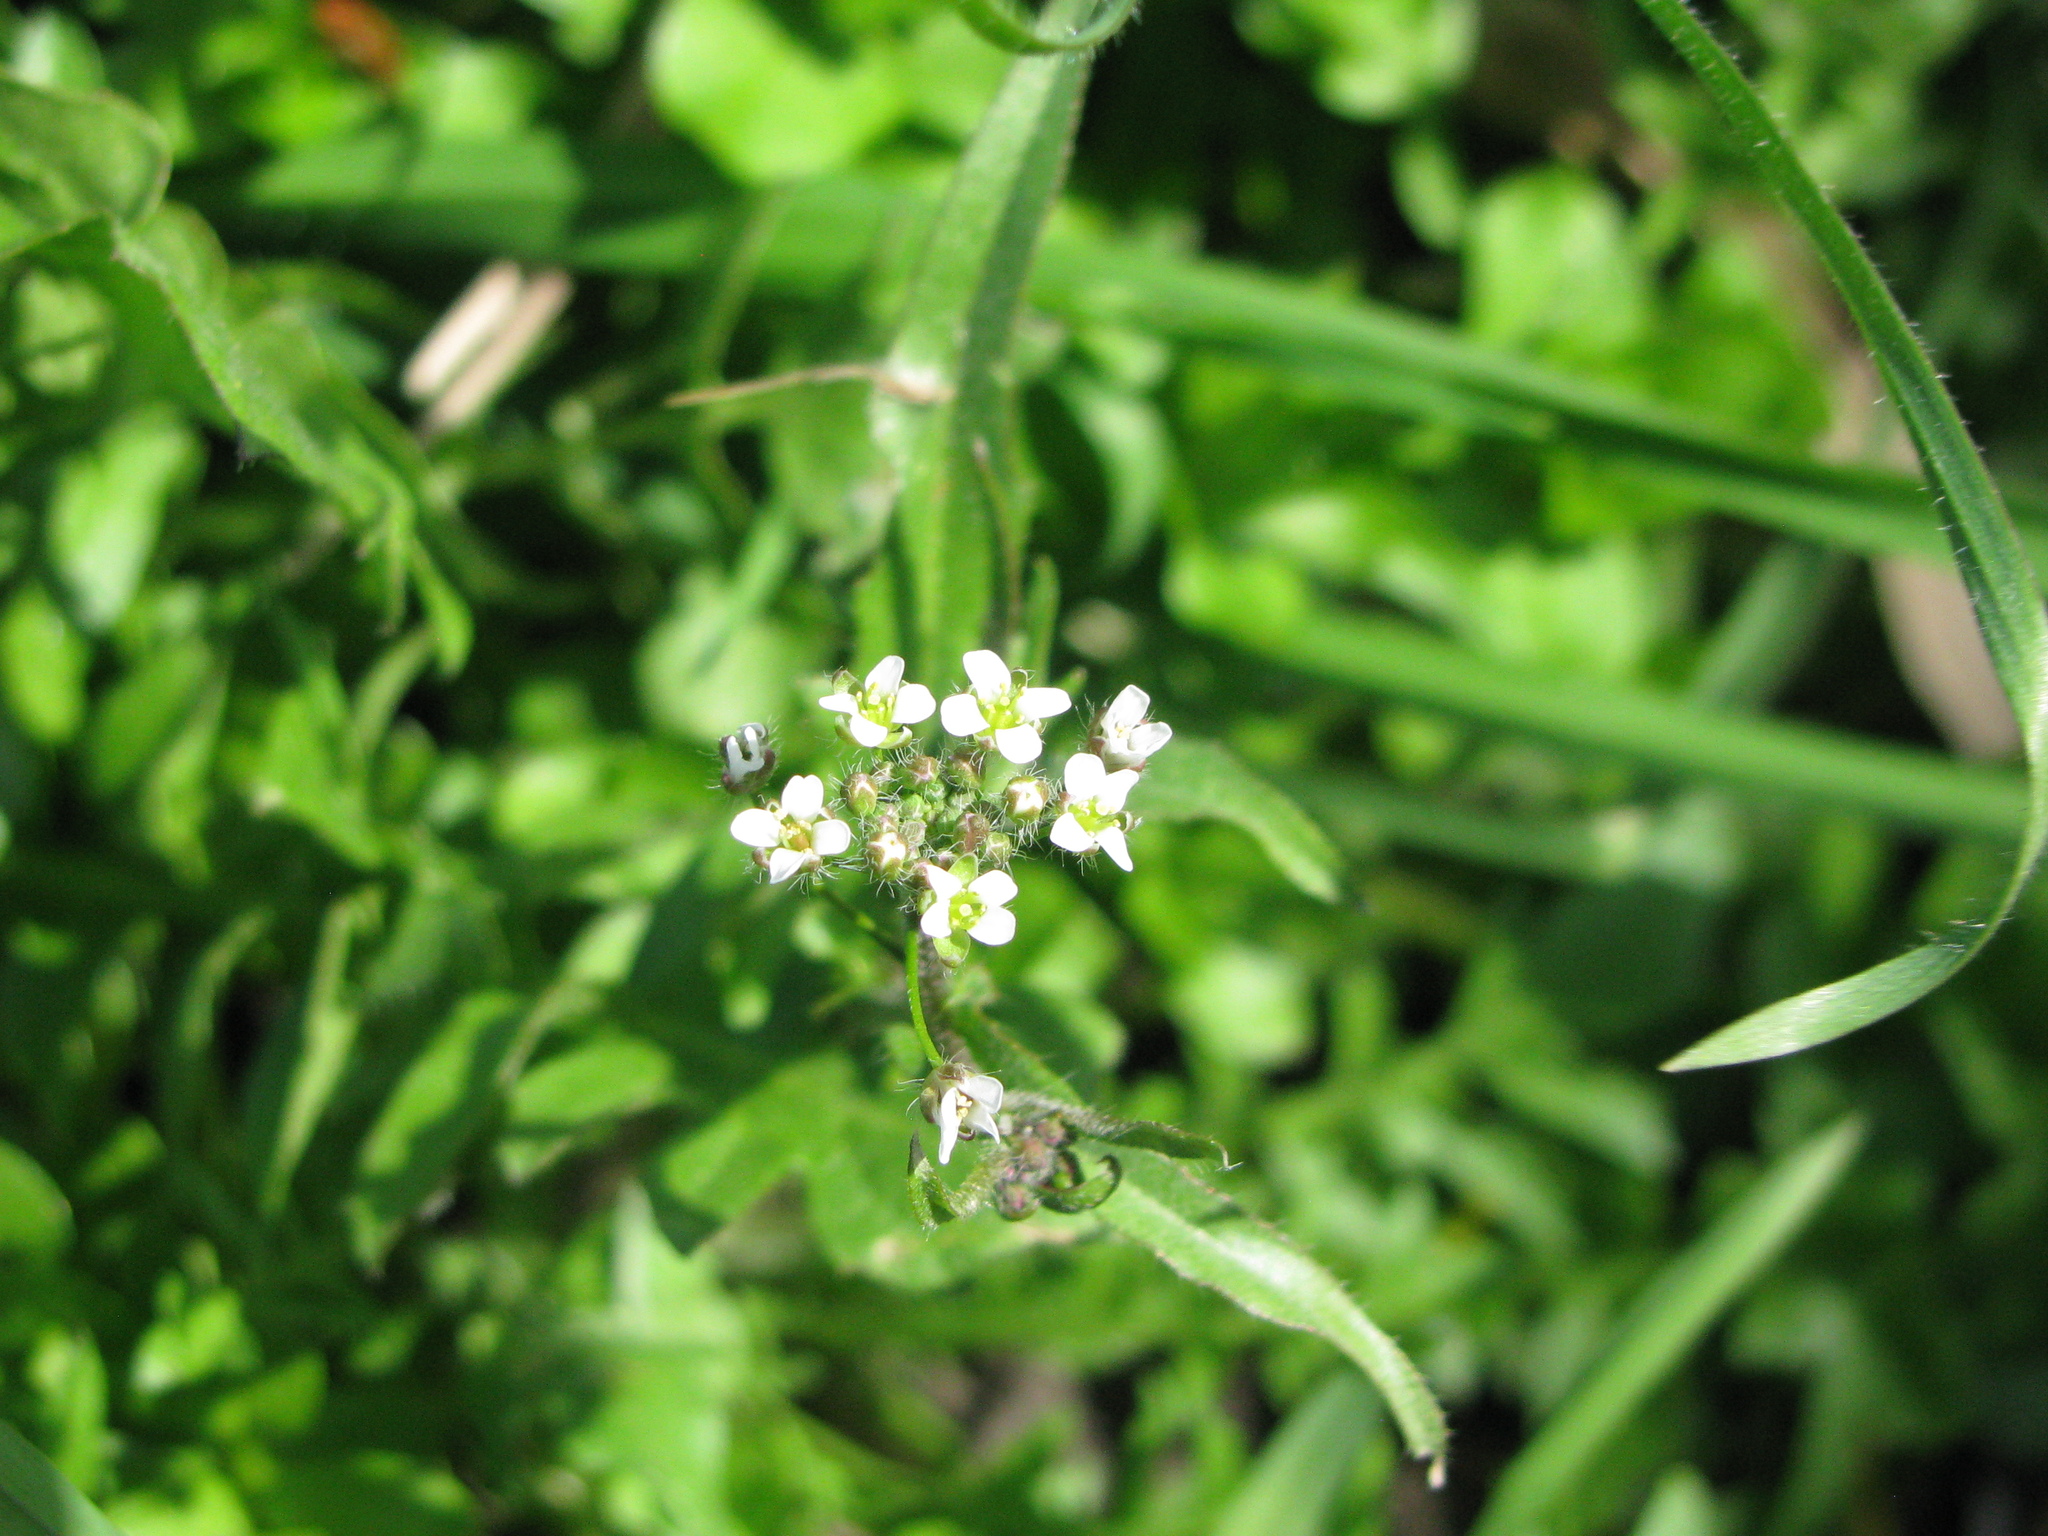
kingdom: Plantae
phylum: Tracheophyta
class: Magnoliopsida
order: Brassicales
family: Brassicaceae
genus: Capsella
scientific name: Capsella bursa-pastoris
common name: Shepherd's purse
